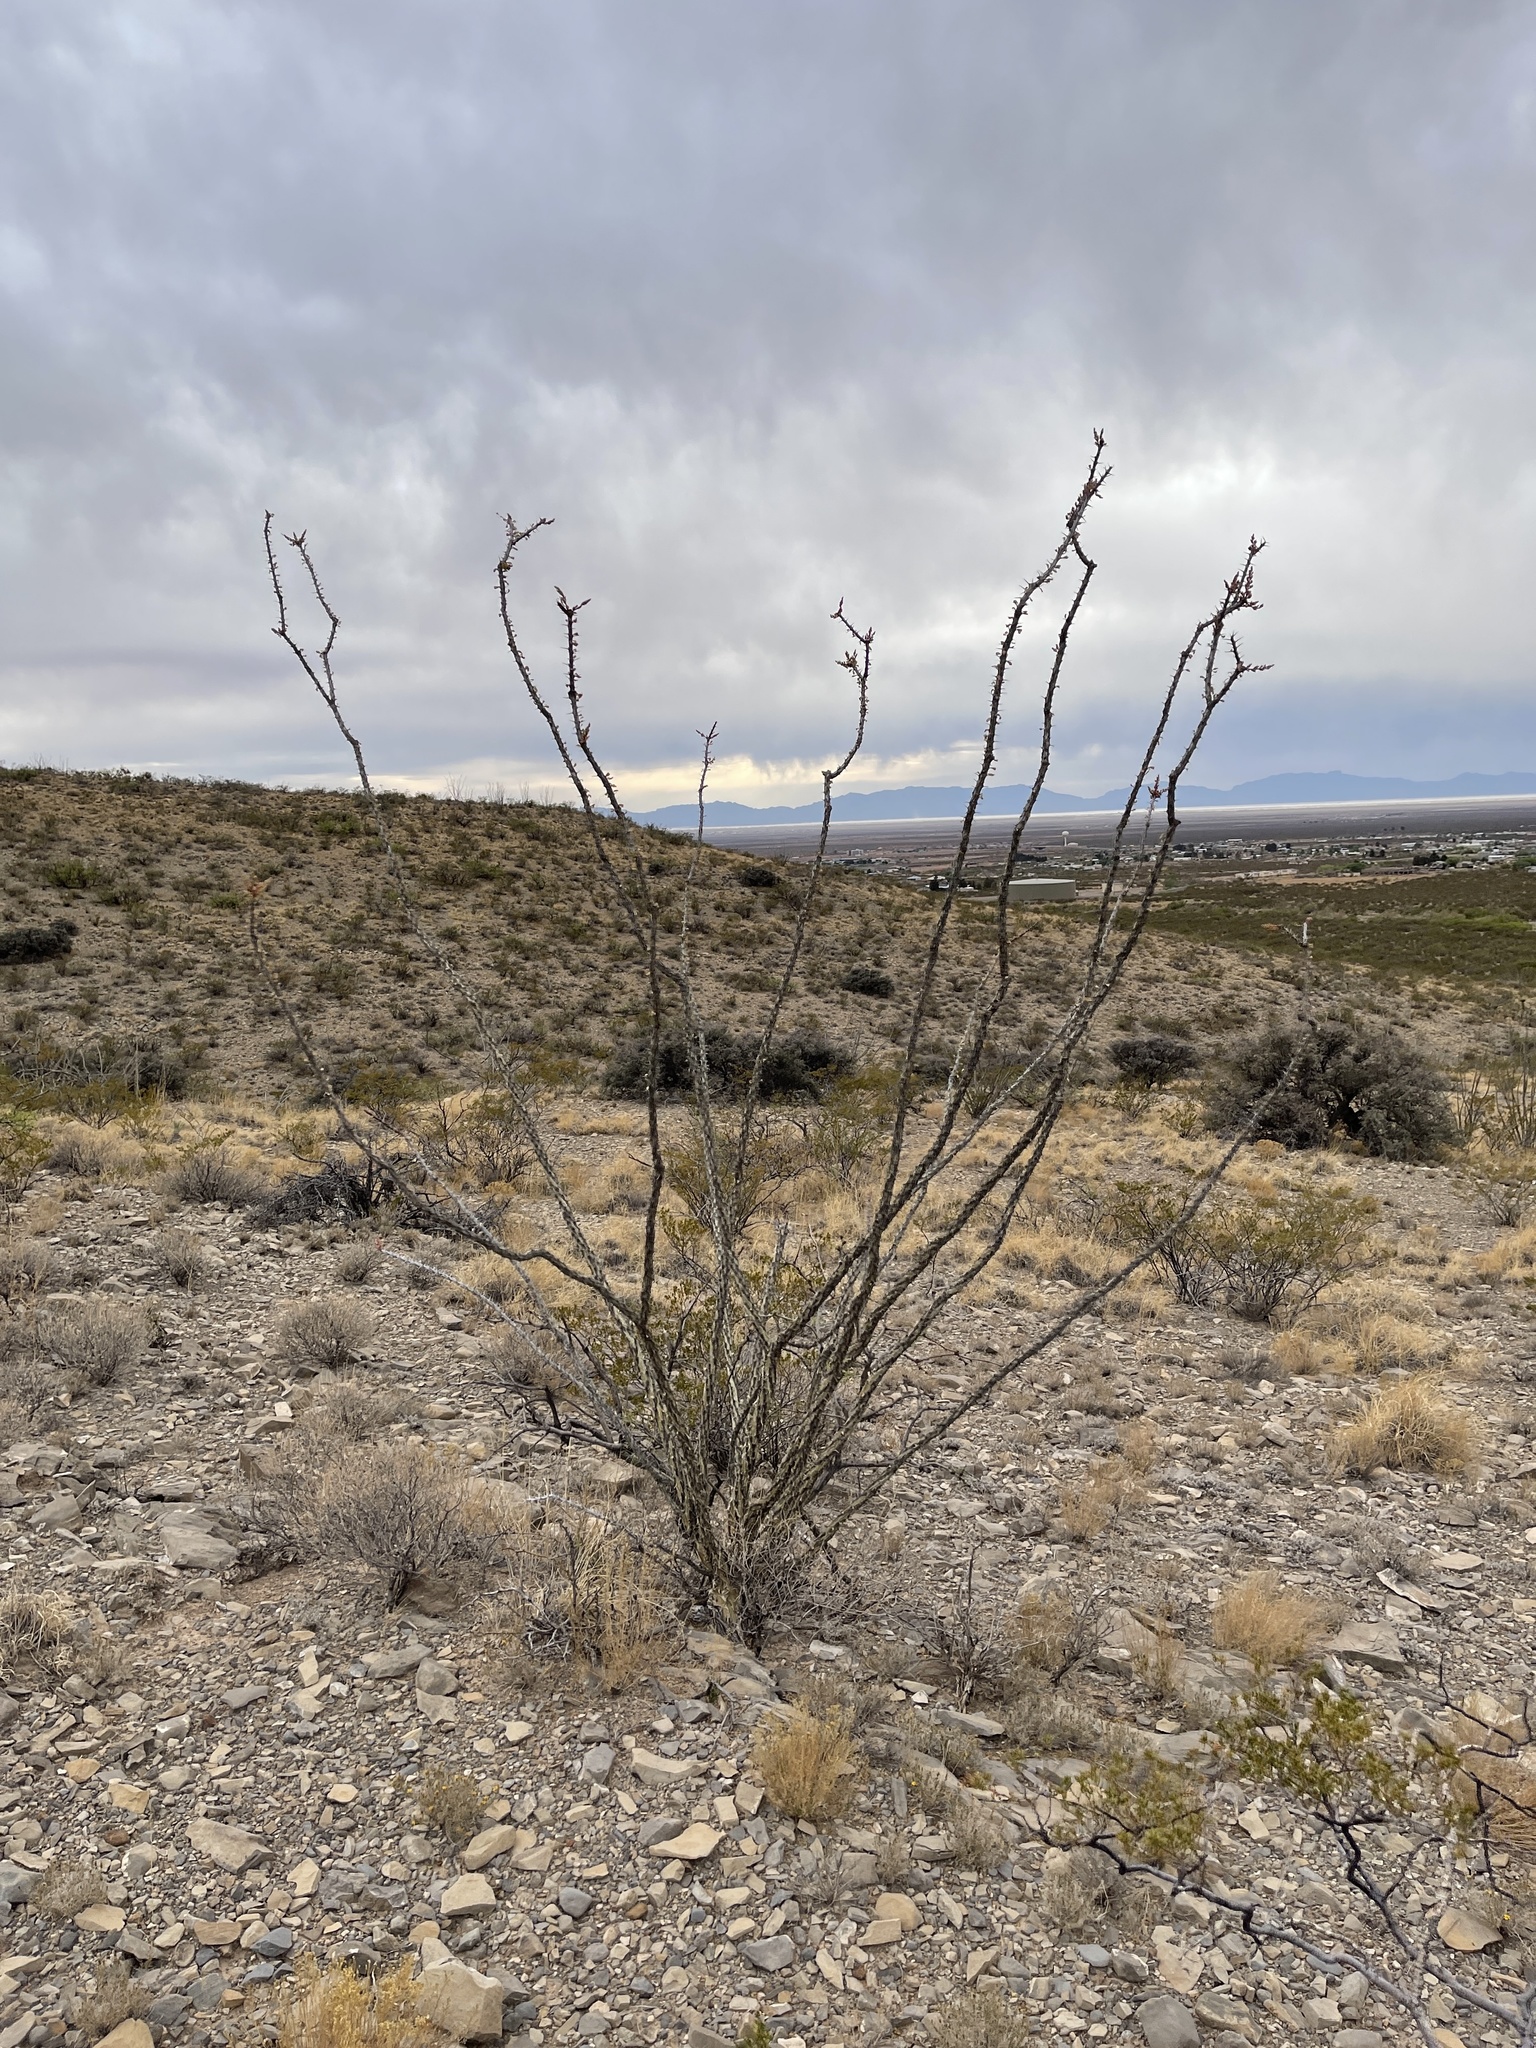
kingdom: Plantae
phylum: Tracheophyta
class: Magnoliopsida
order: Ericales
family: Fouquieriaceae
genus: Fouquieria
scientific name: Fouquieria splendens
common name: Vine-cactus
